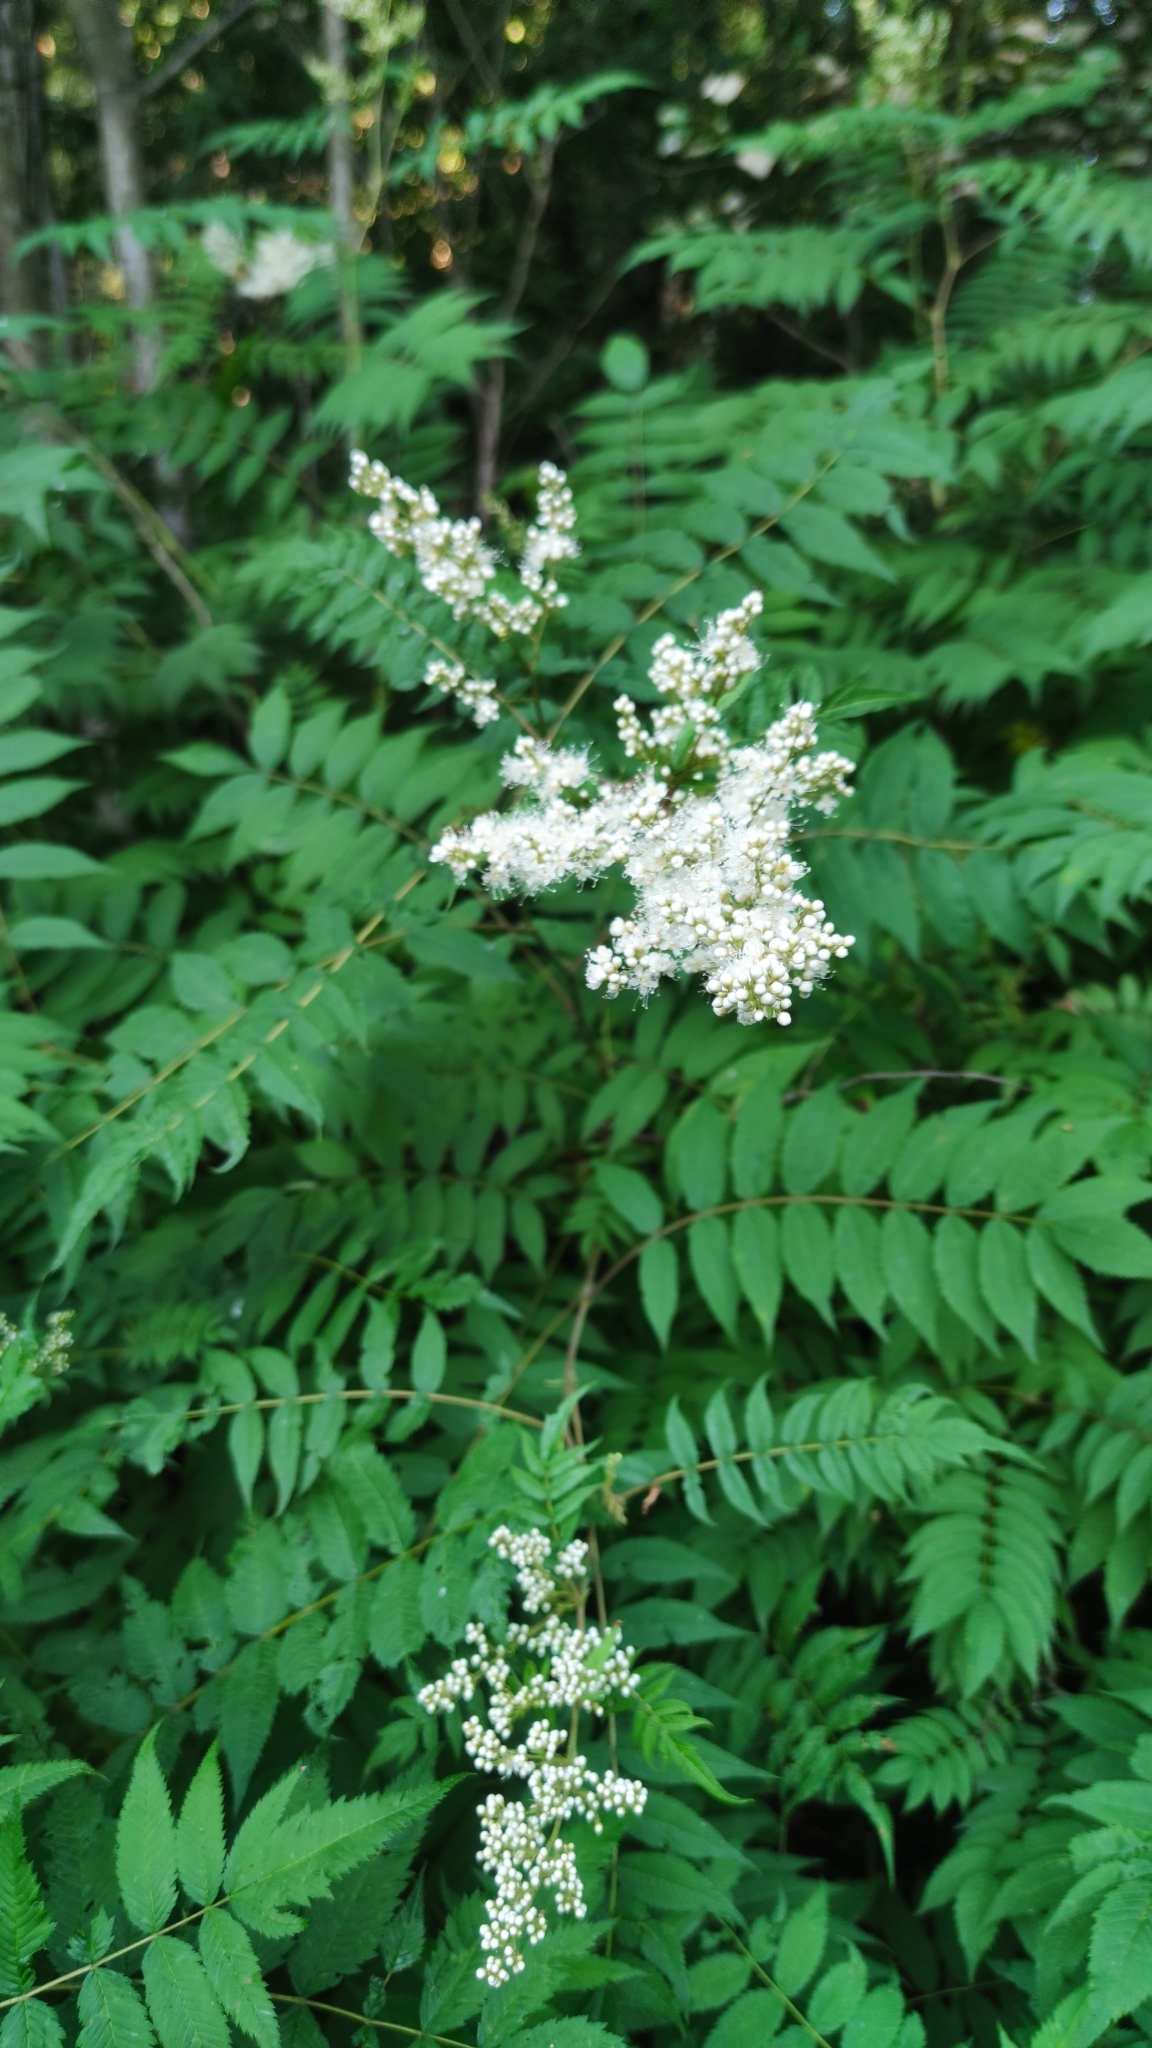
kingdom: Plantae
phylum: Tracheophyta
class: Magnoliopsida
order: Rosales
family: Rosaceae
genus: Sorbaria
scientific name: Sorbaria sorbifolia
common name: False spiraea
